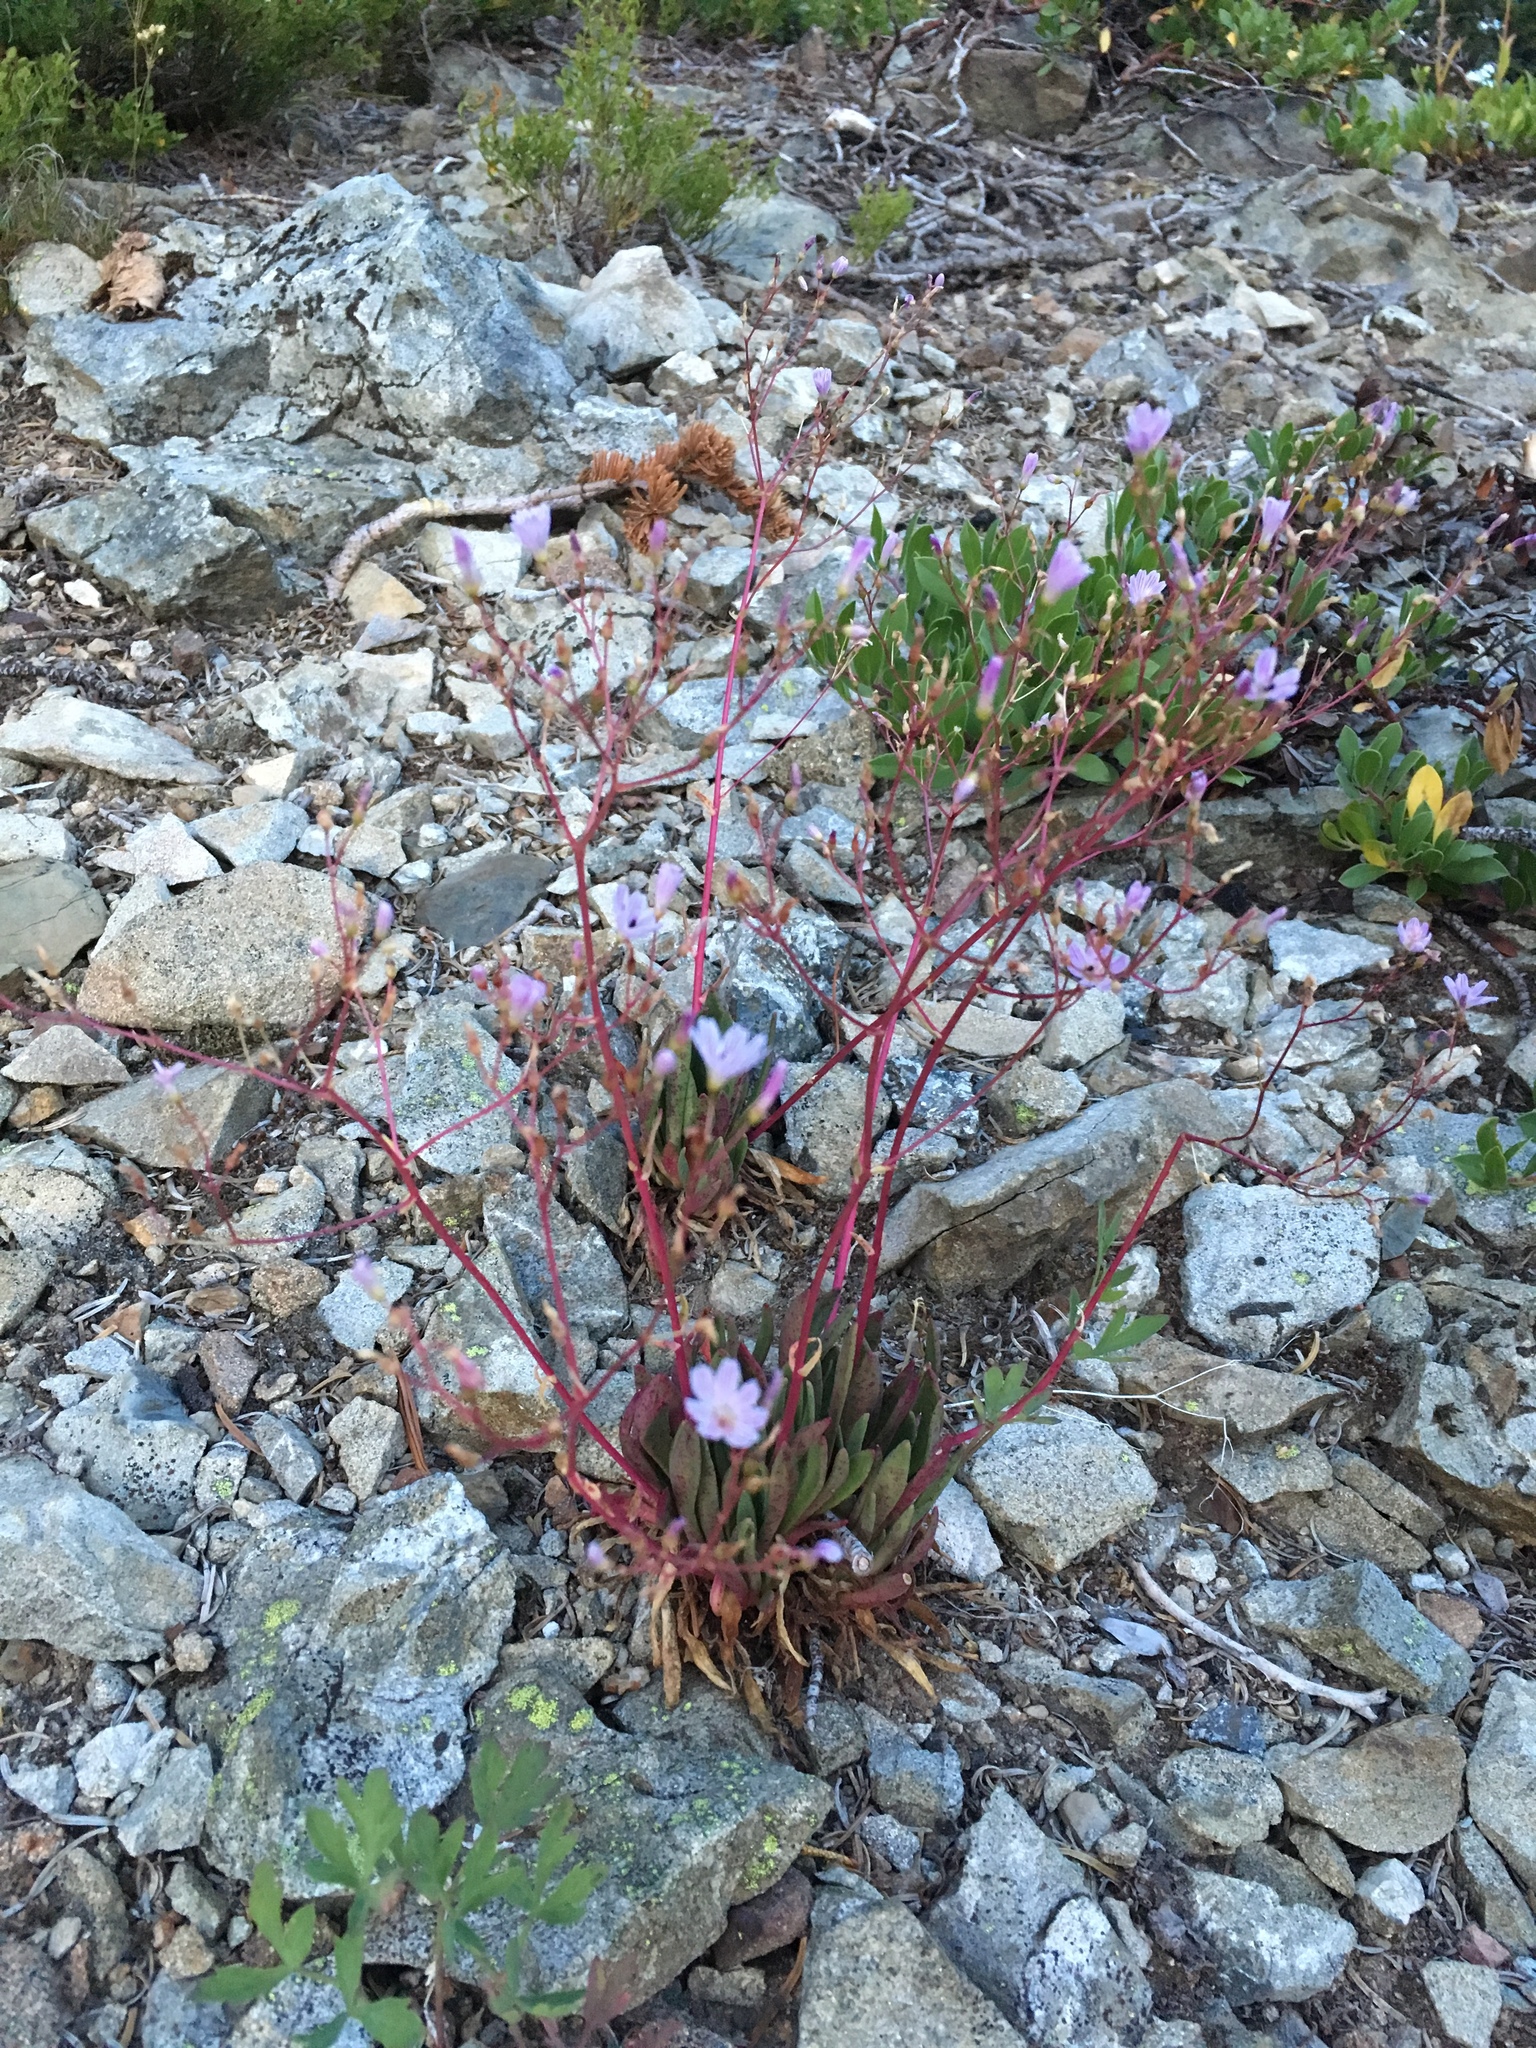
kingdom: Plantae
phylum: Tracheophyta
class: Magnoliopsida
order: Caryophyllales
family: Montiaceae
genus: Lewisia
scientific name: Lewisia columbiana
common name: Columbia lewisia
